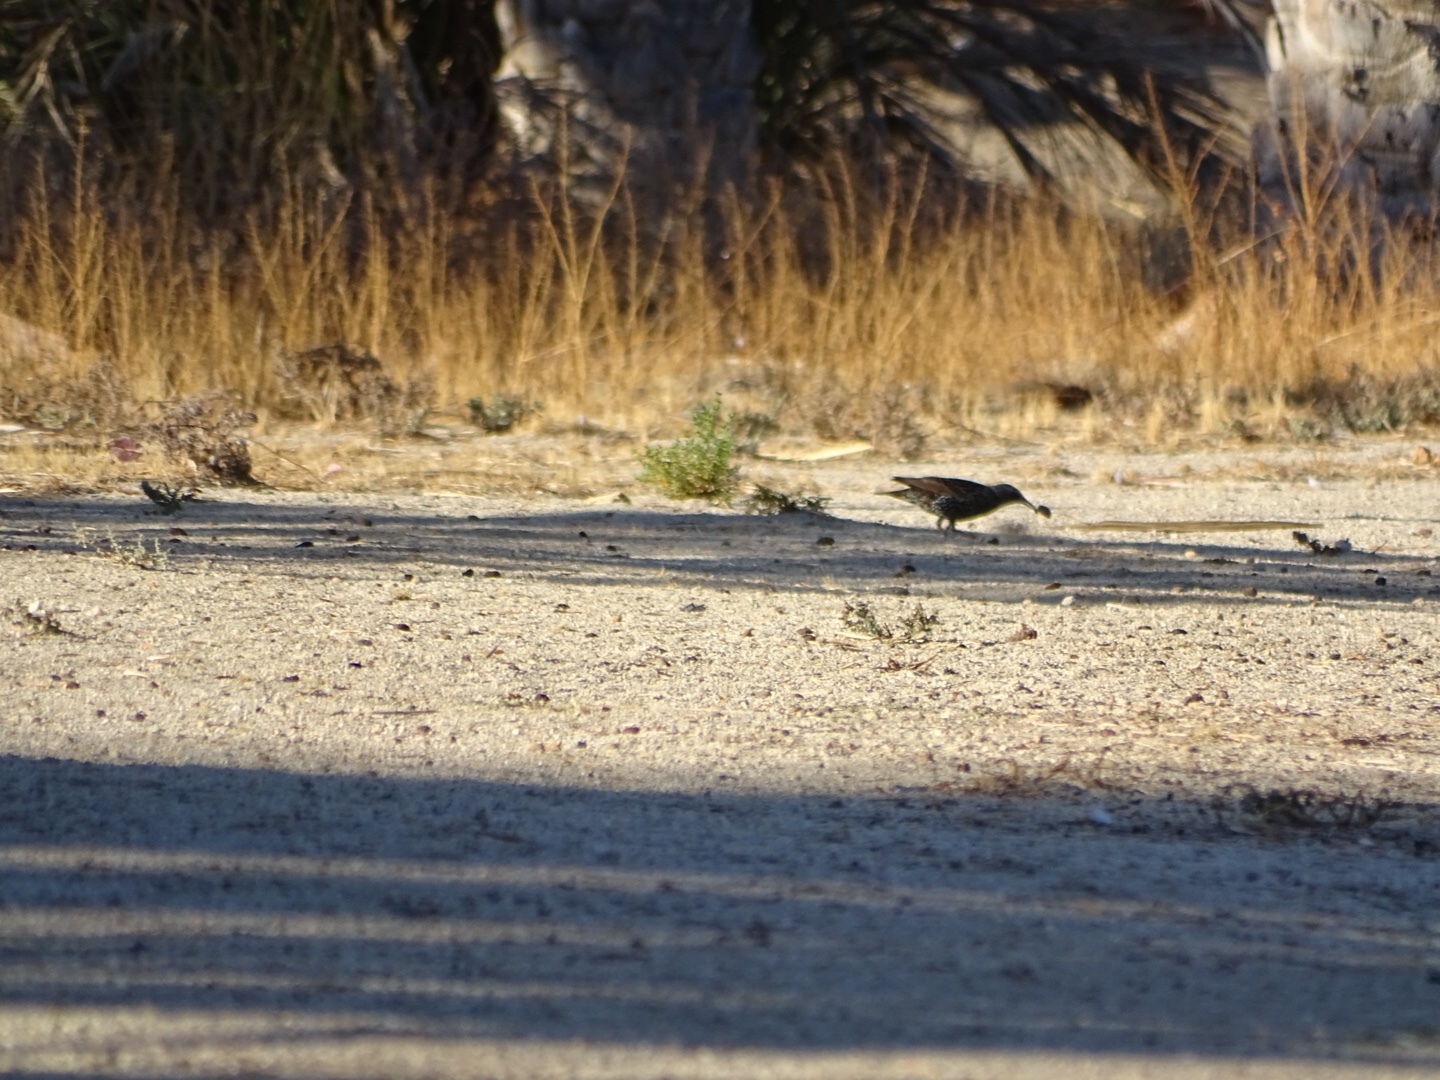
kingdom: Animalia
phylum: Chordata
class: Aves
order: Passeriformes
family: Sturnidae
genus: Sturnus
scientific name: Sturnus vulgaris
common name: Common starling
